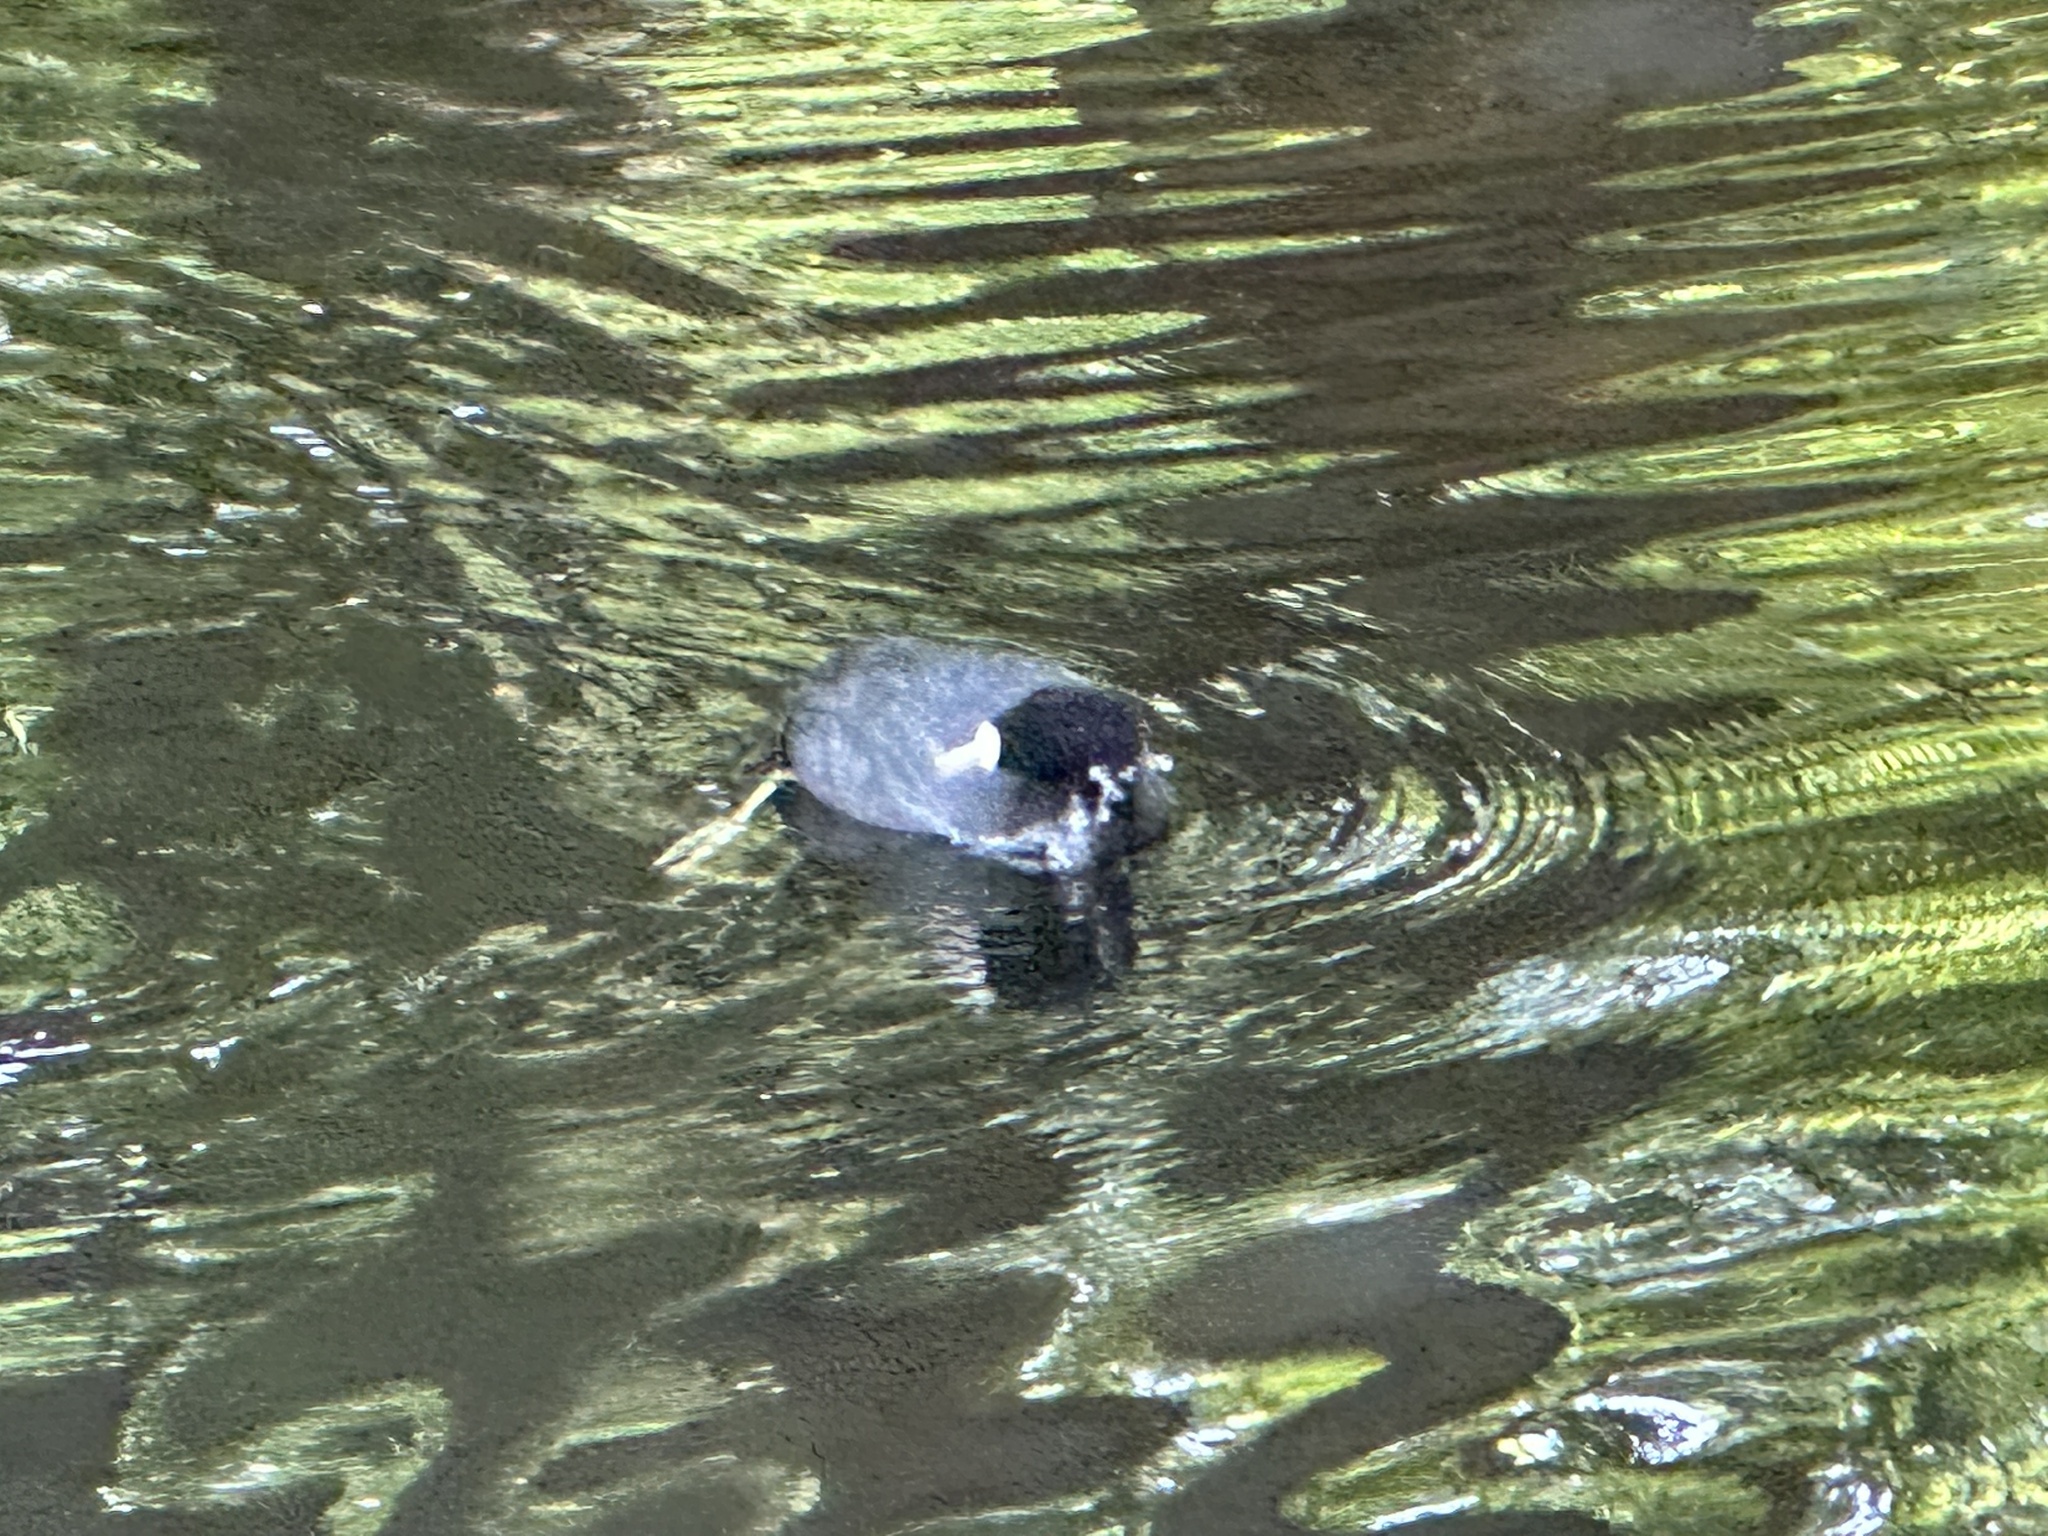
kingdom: Animalia
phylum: Chordata
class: Aves
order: Gruiformes
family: Rallidae
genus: Fulica
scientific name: Fulica atra
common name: Eurasian coot
